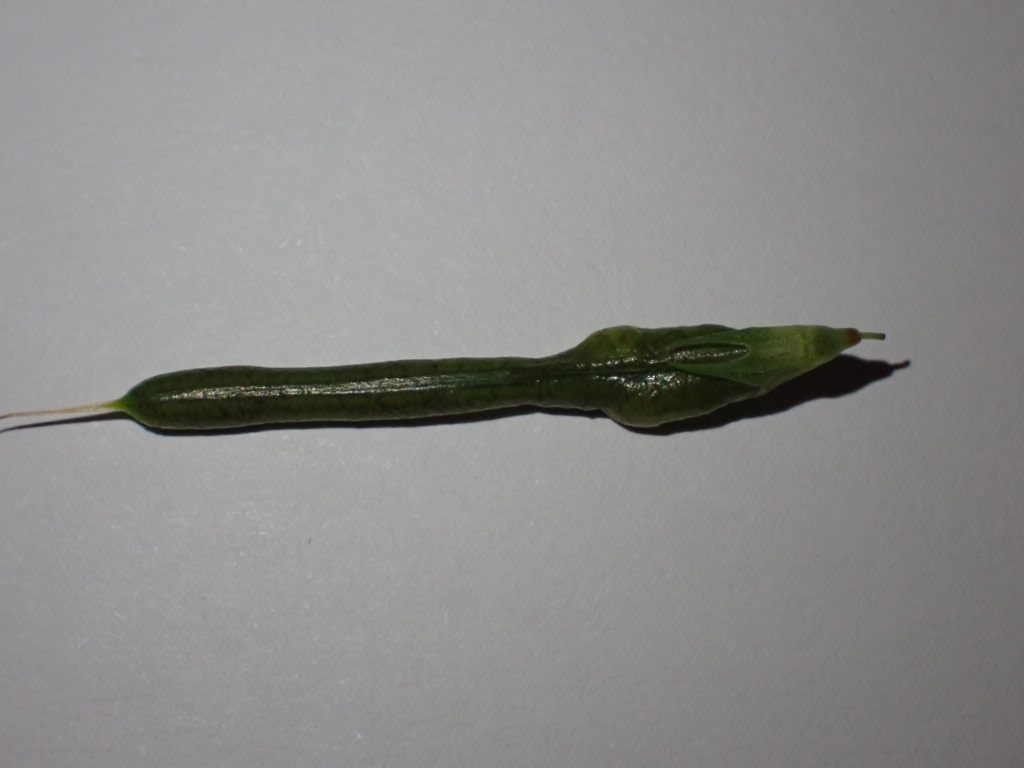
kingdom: Animalia
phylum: Arthropoda
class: Insecta
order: Diptera
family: Cecidomyiidae
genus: Asphondylia
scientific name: Asphondylia melanopus
